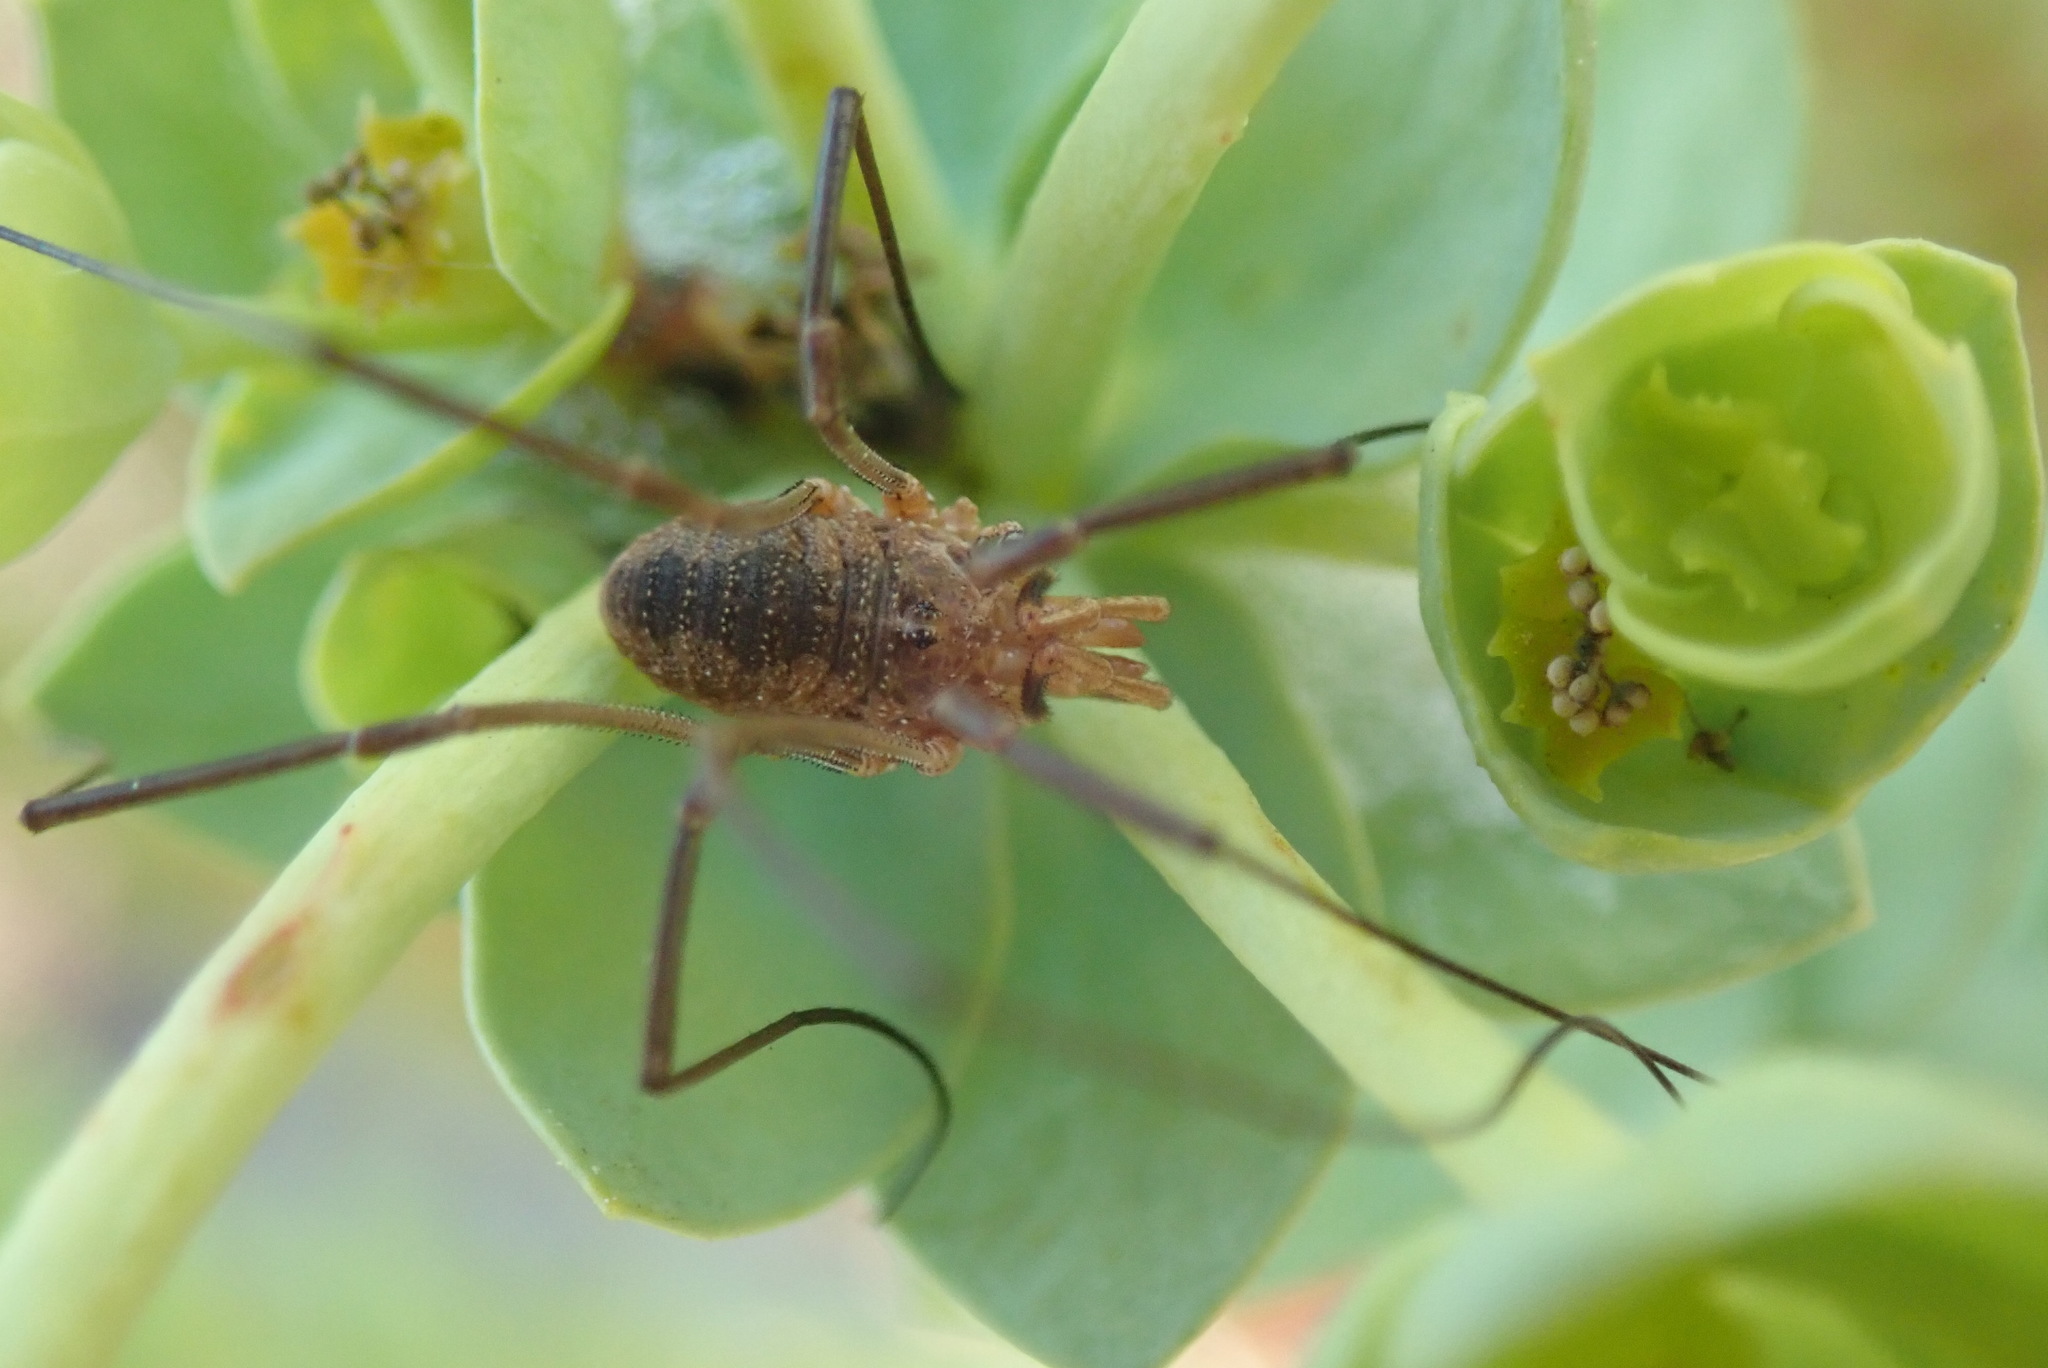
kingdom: Animalia
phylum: Arthropoda
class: Arachnida
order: Opiliones
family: Phalangiidae
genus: Phalangium
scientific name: Phalangium opilio
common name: Daddy longleg
